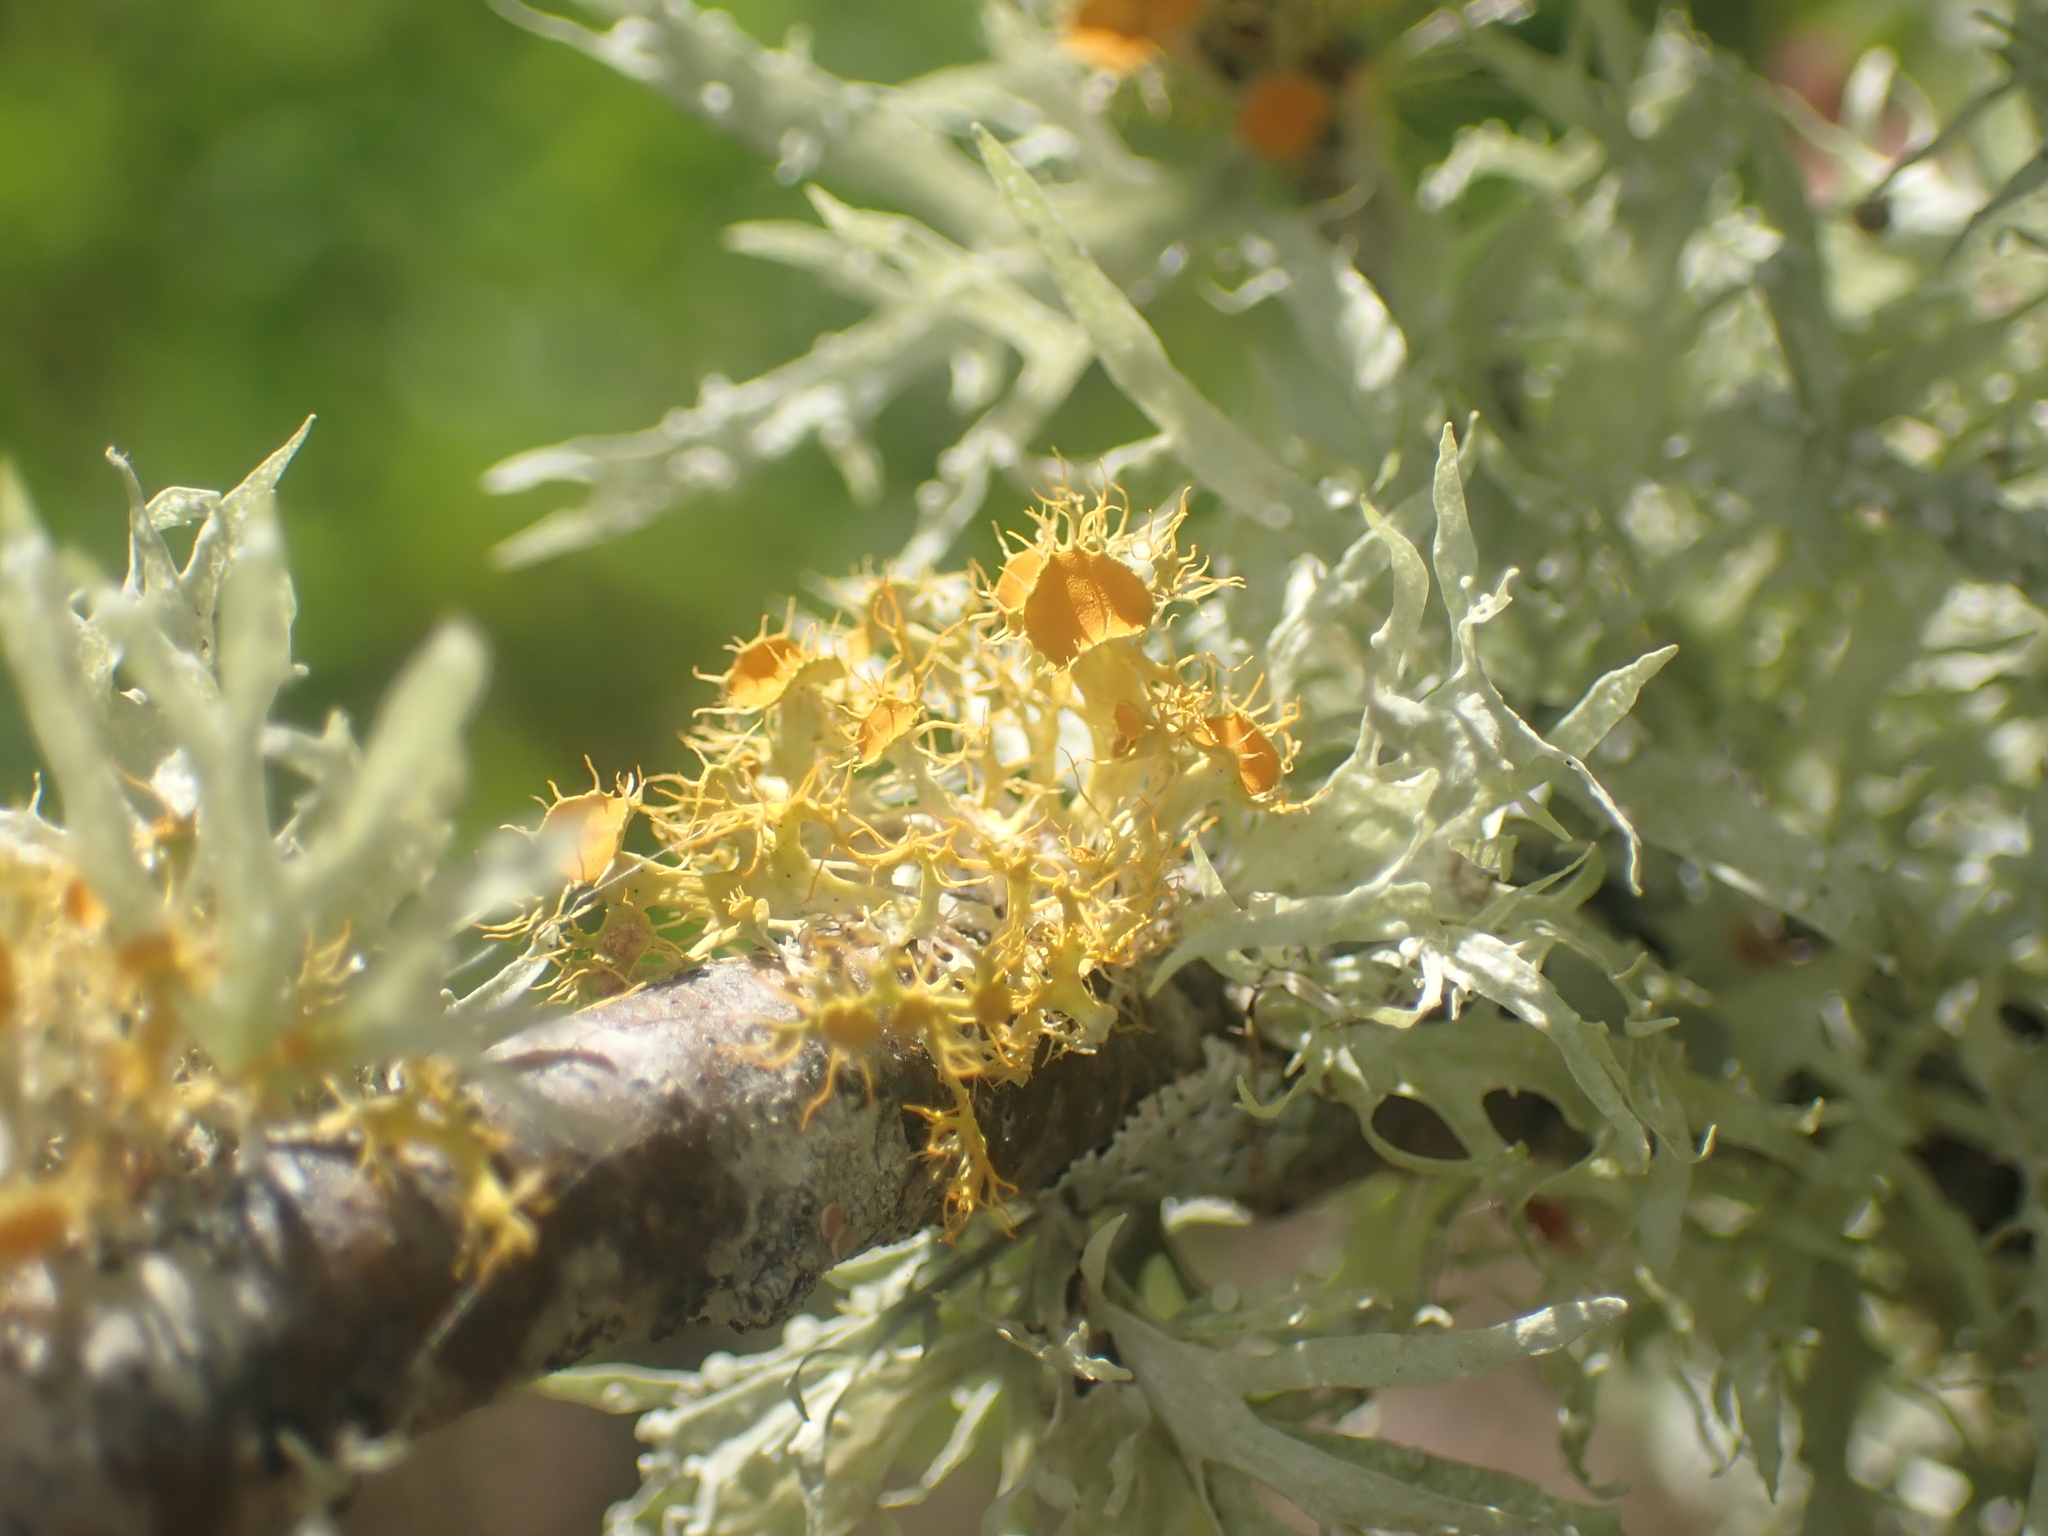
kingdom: Fungi
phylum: Ascomycota
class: Lecanoromycetes
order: Teloschistales
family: Teloschistaceae
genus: Niorma
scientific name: Niorma chrysophthalma
